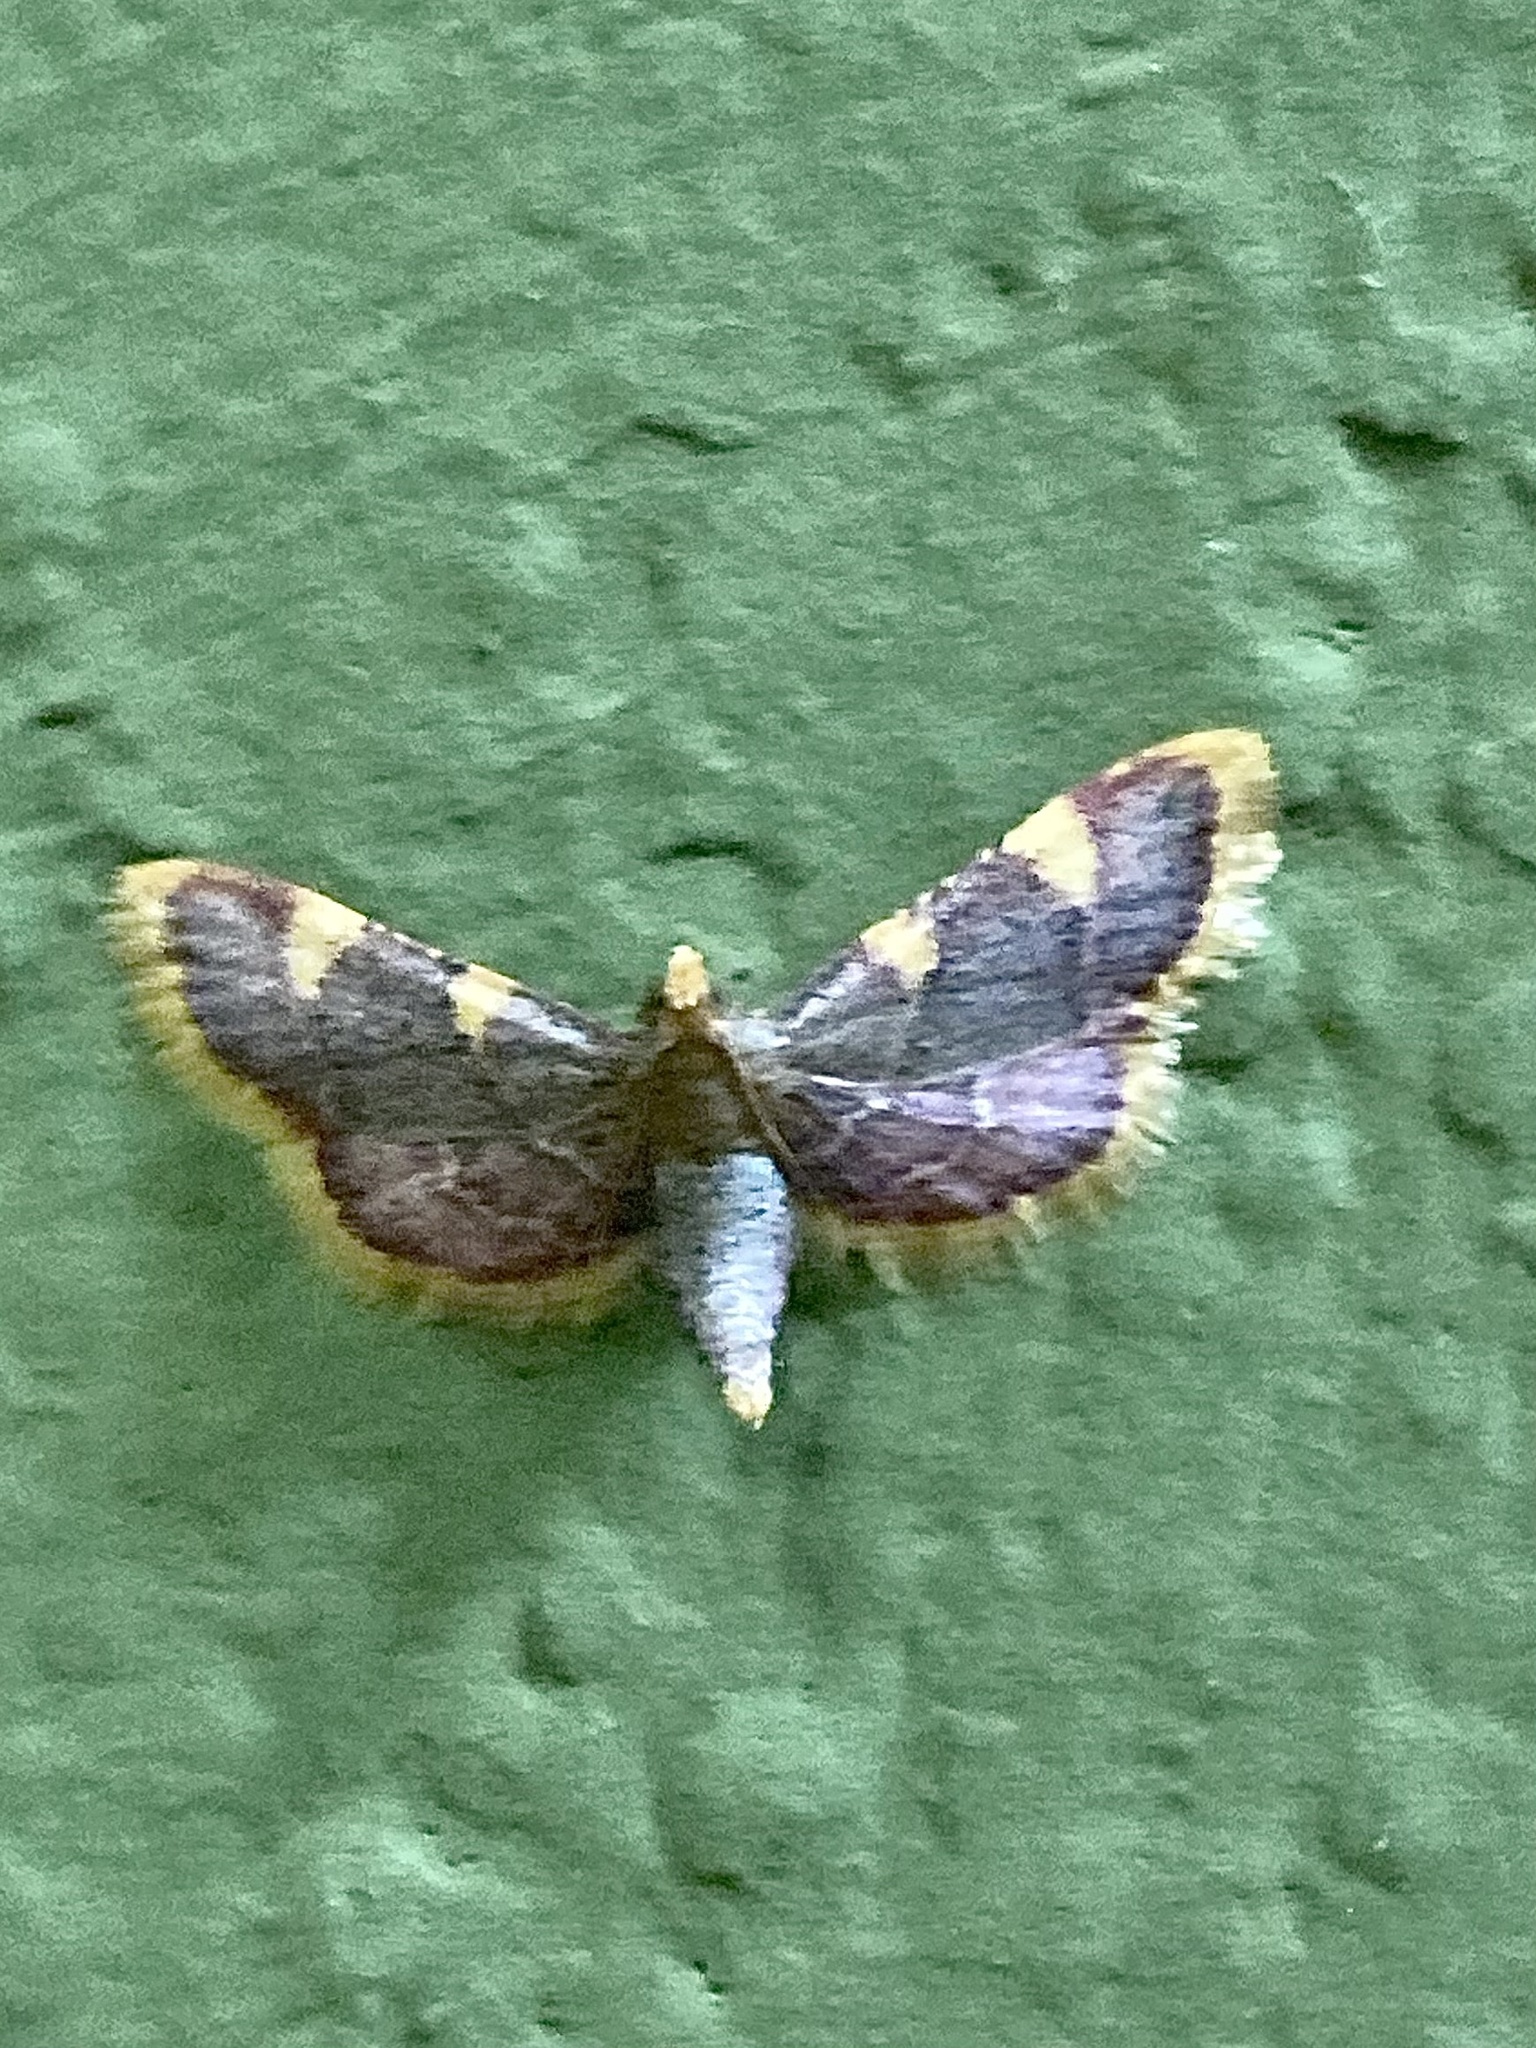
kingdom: Animalia
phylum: Arthropoda
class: Insecta
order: Lepidoptera
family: Pyralidae
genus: Hypsopygia
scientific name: Hypsopygia costalis
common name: Gold triangle
